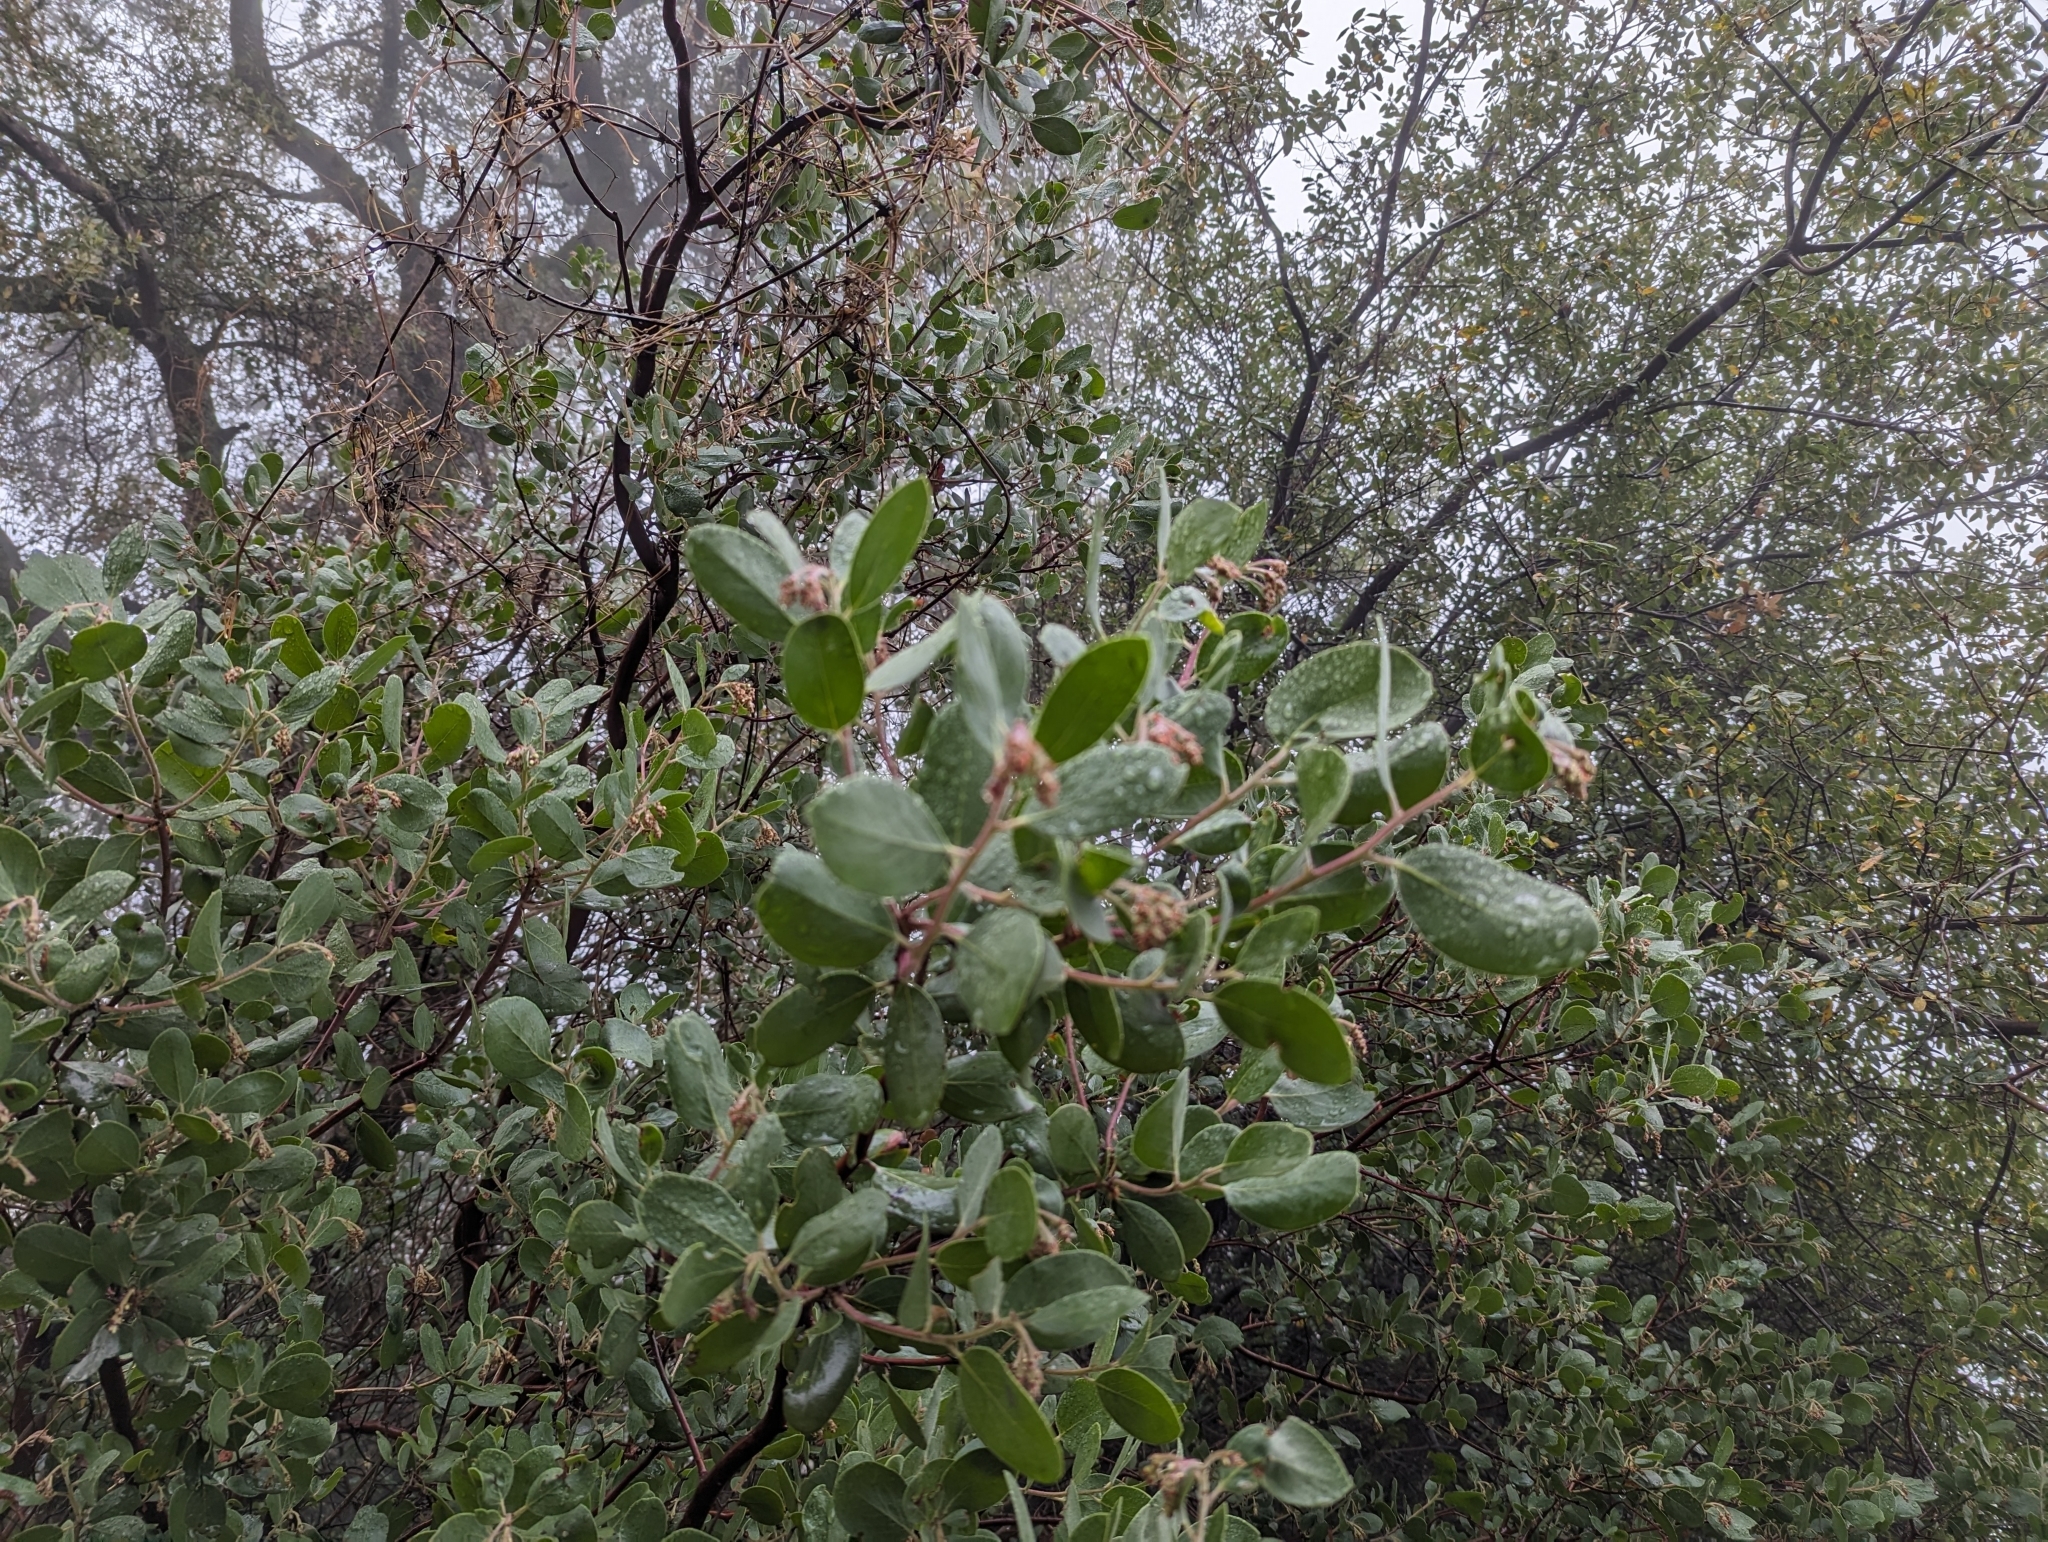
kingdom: Plantae
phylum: Tracheophyta
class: Magnoliopsida
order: Ericales
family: Ericaceae
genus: Arctostaphylos
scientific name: Arctostaphylos manzanita
